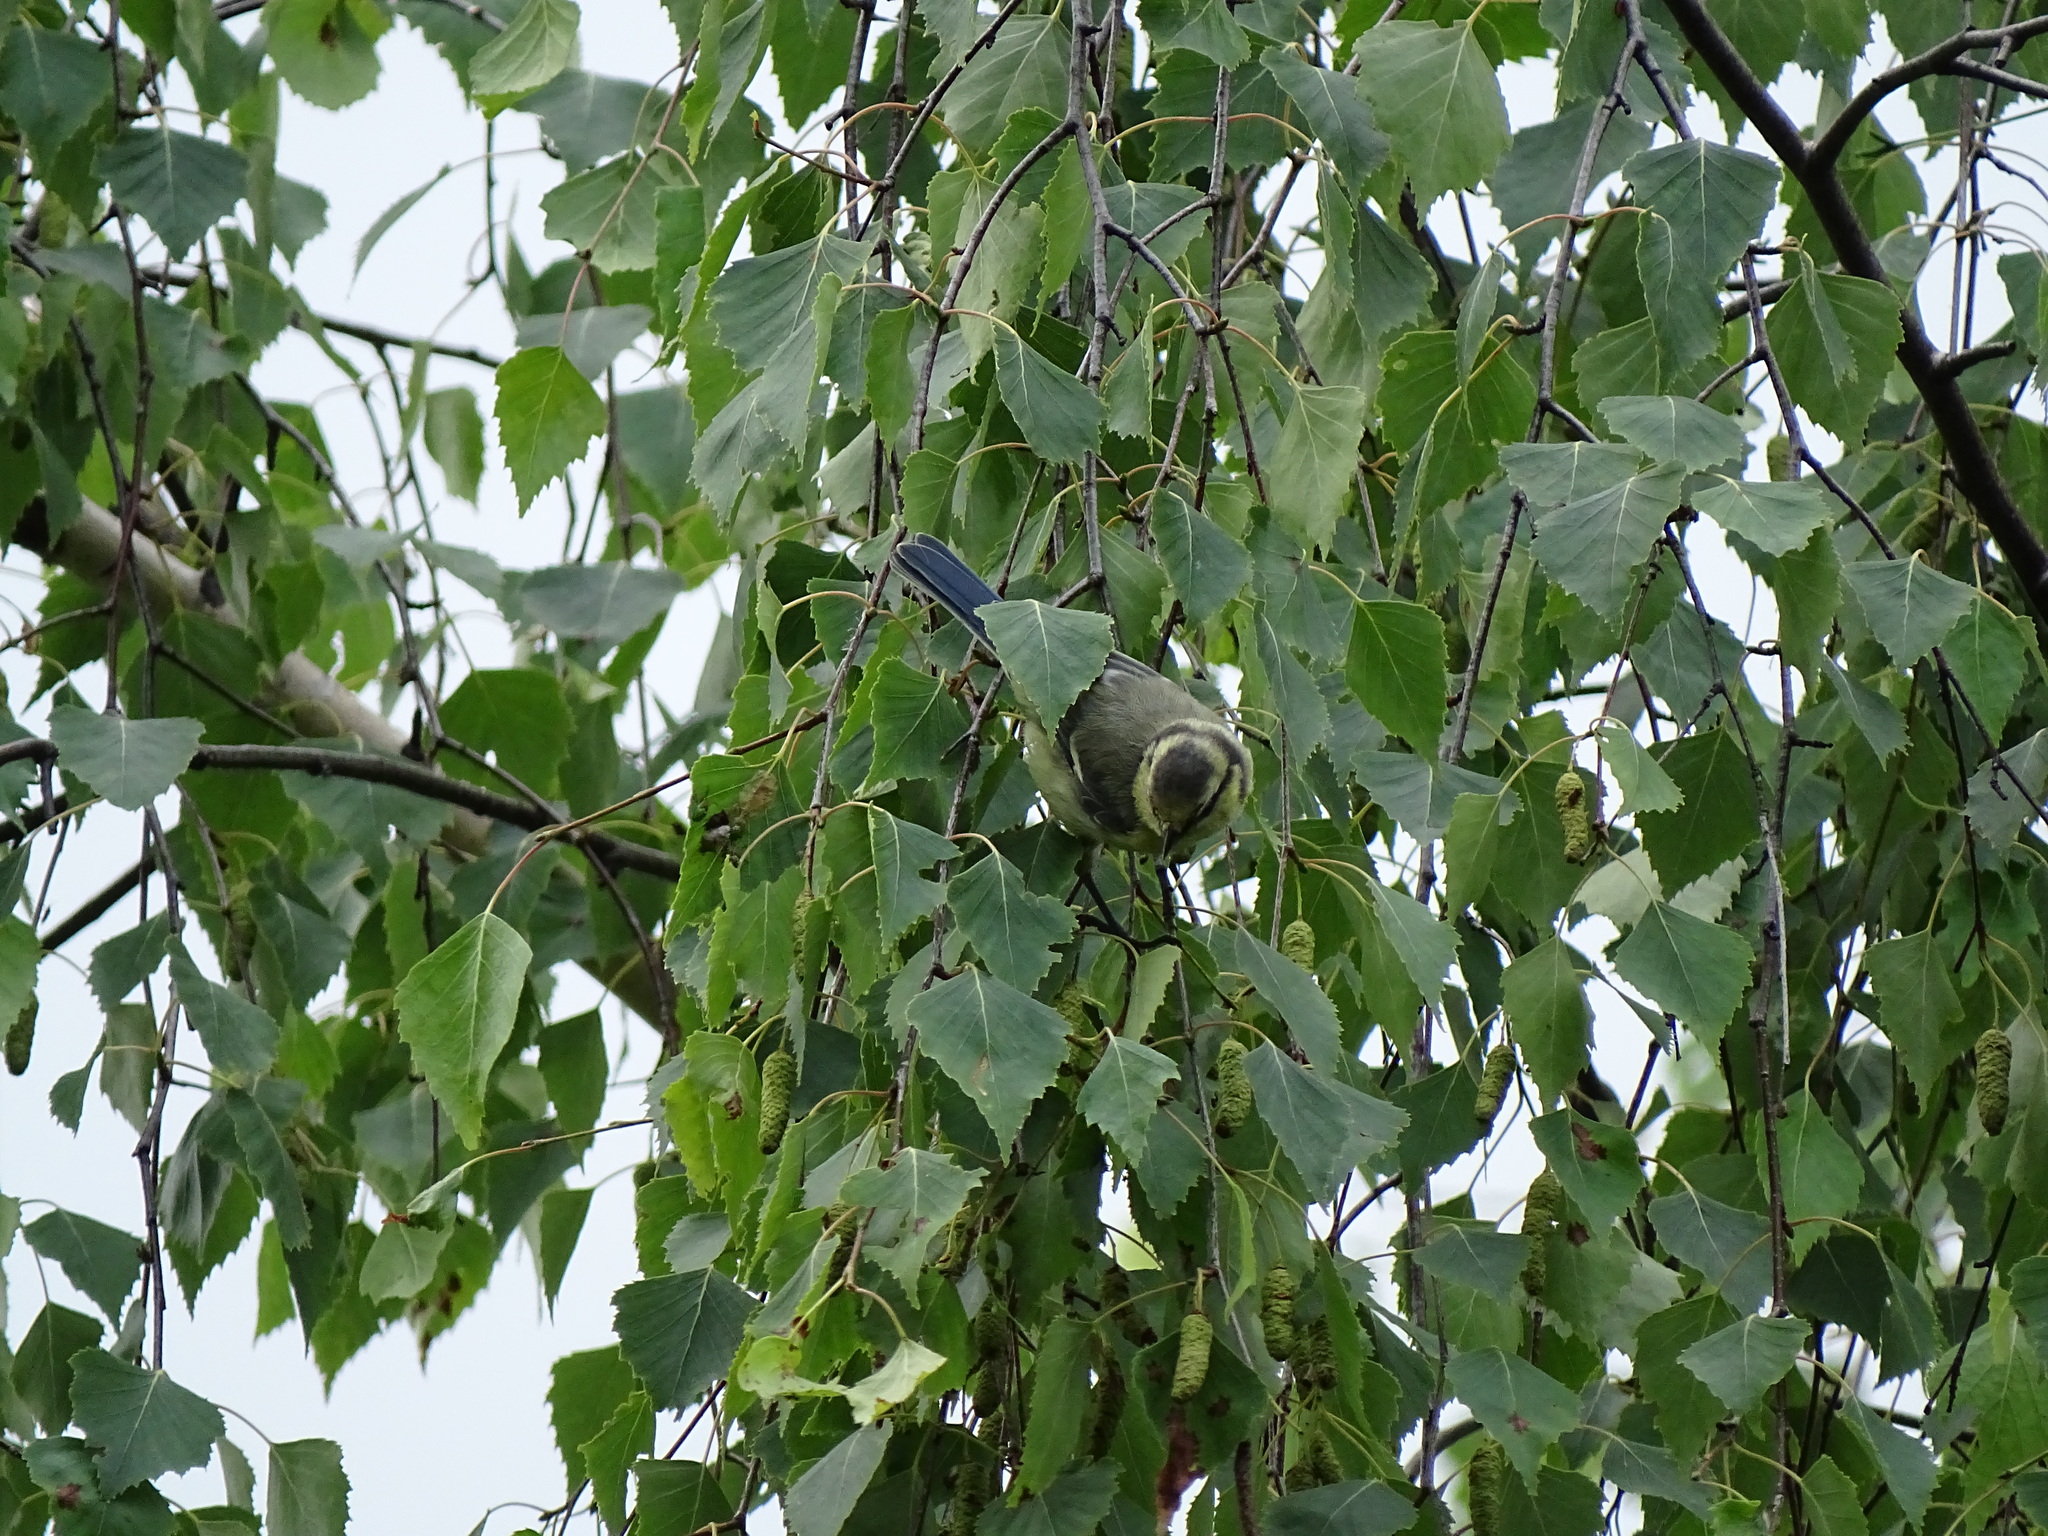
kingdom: Animalia
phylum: Chordata
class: Aves
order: Passeriformes
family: Paridae
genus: Cyanistes
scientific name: Cyanistes caeruleus
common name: Eurasian blue tit
